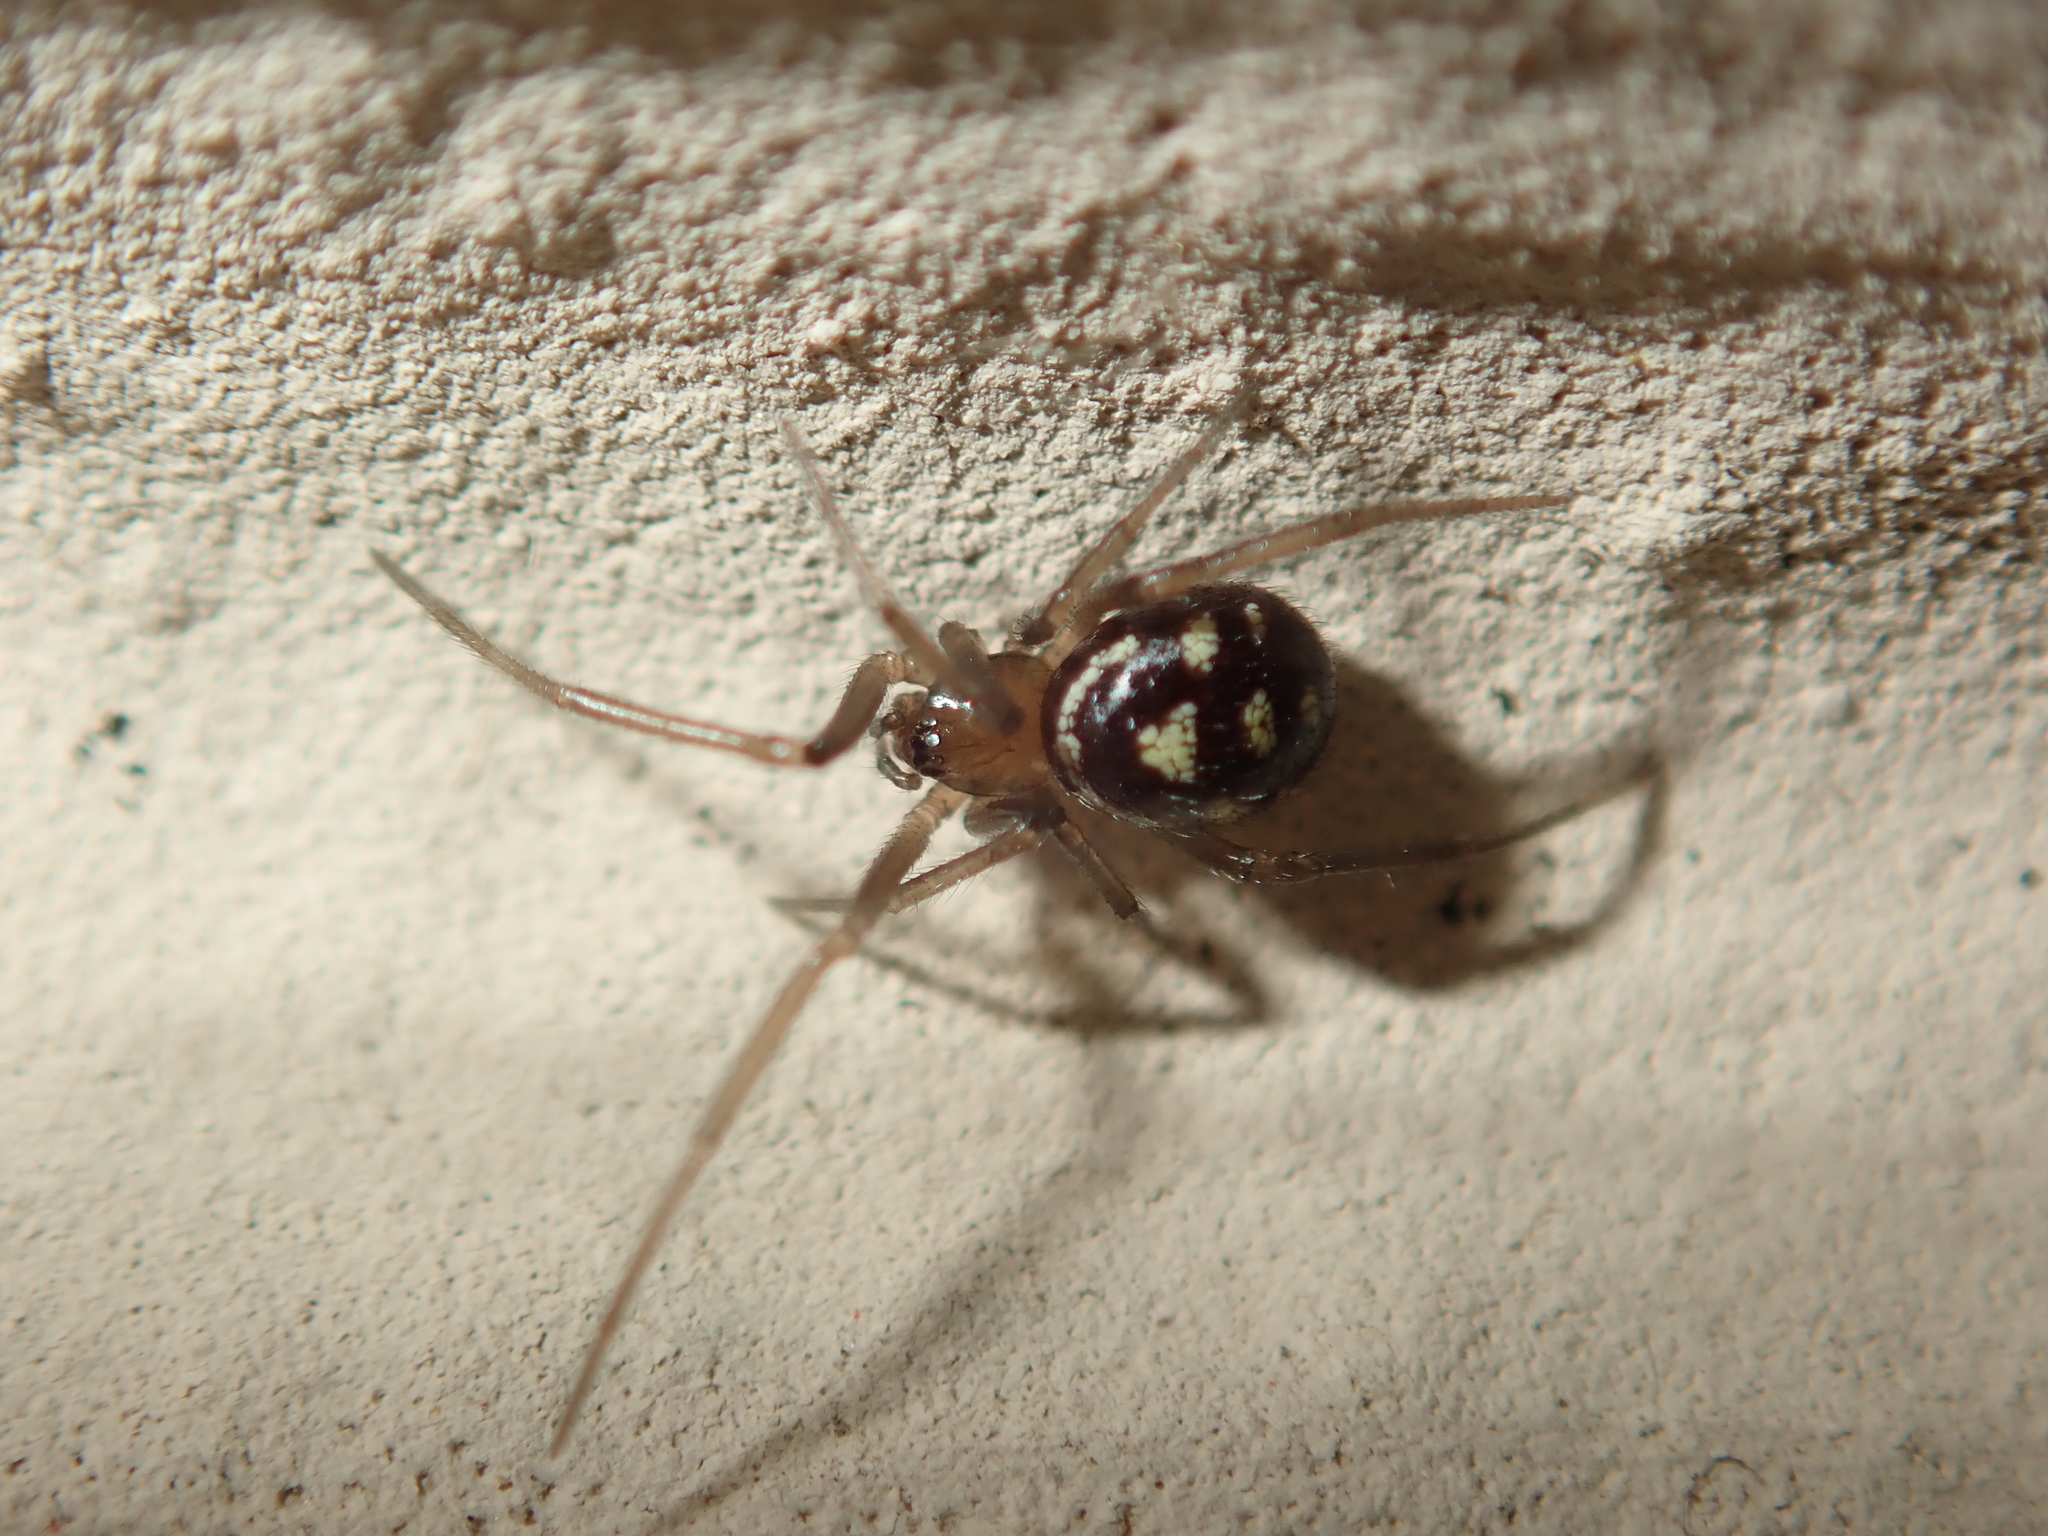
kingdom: Animalia
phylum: Arthropoda
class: Arachnida
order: Araneae
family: Theridiidae
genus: Steatoda
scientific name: Steatoda grossa
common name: False black widow
